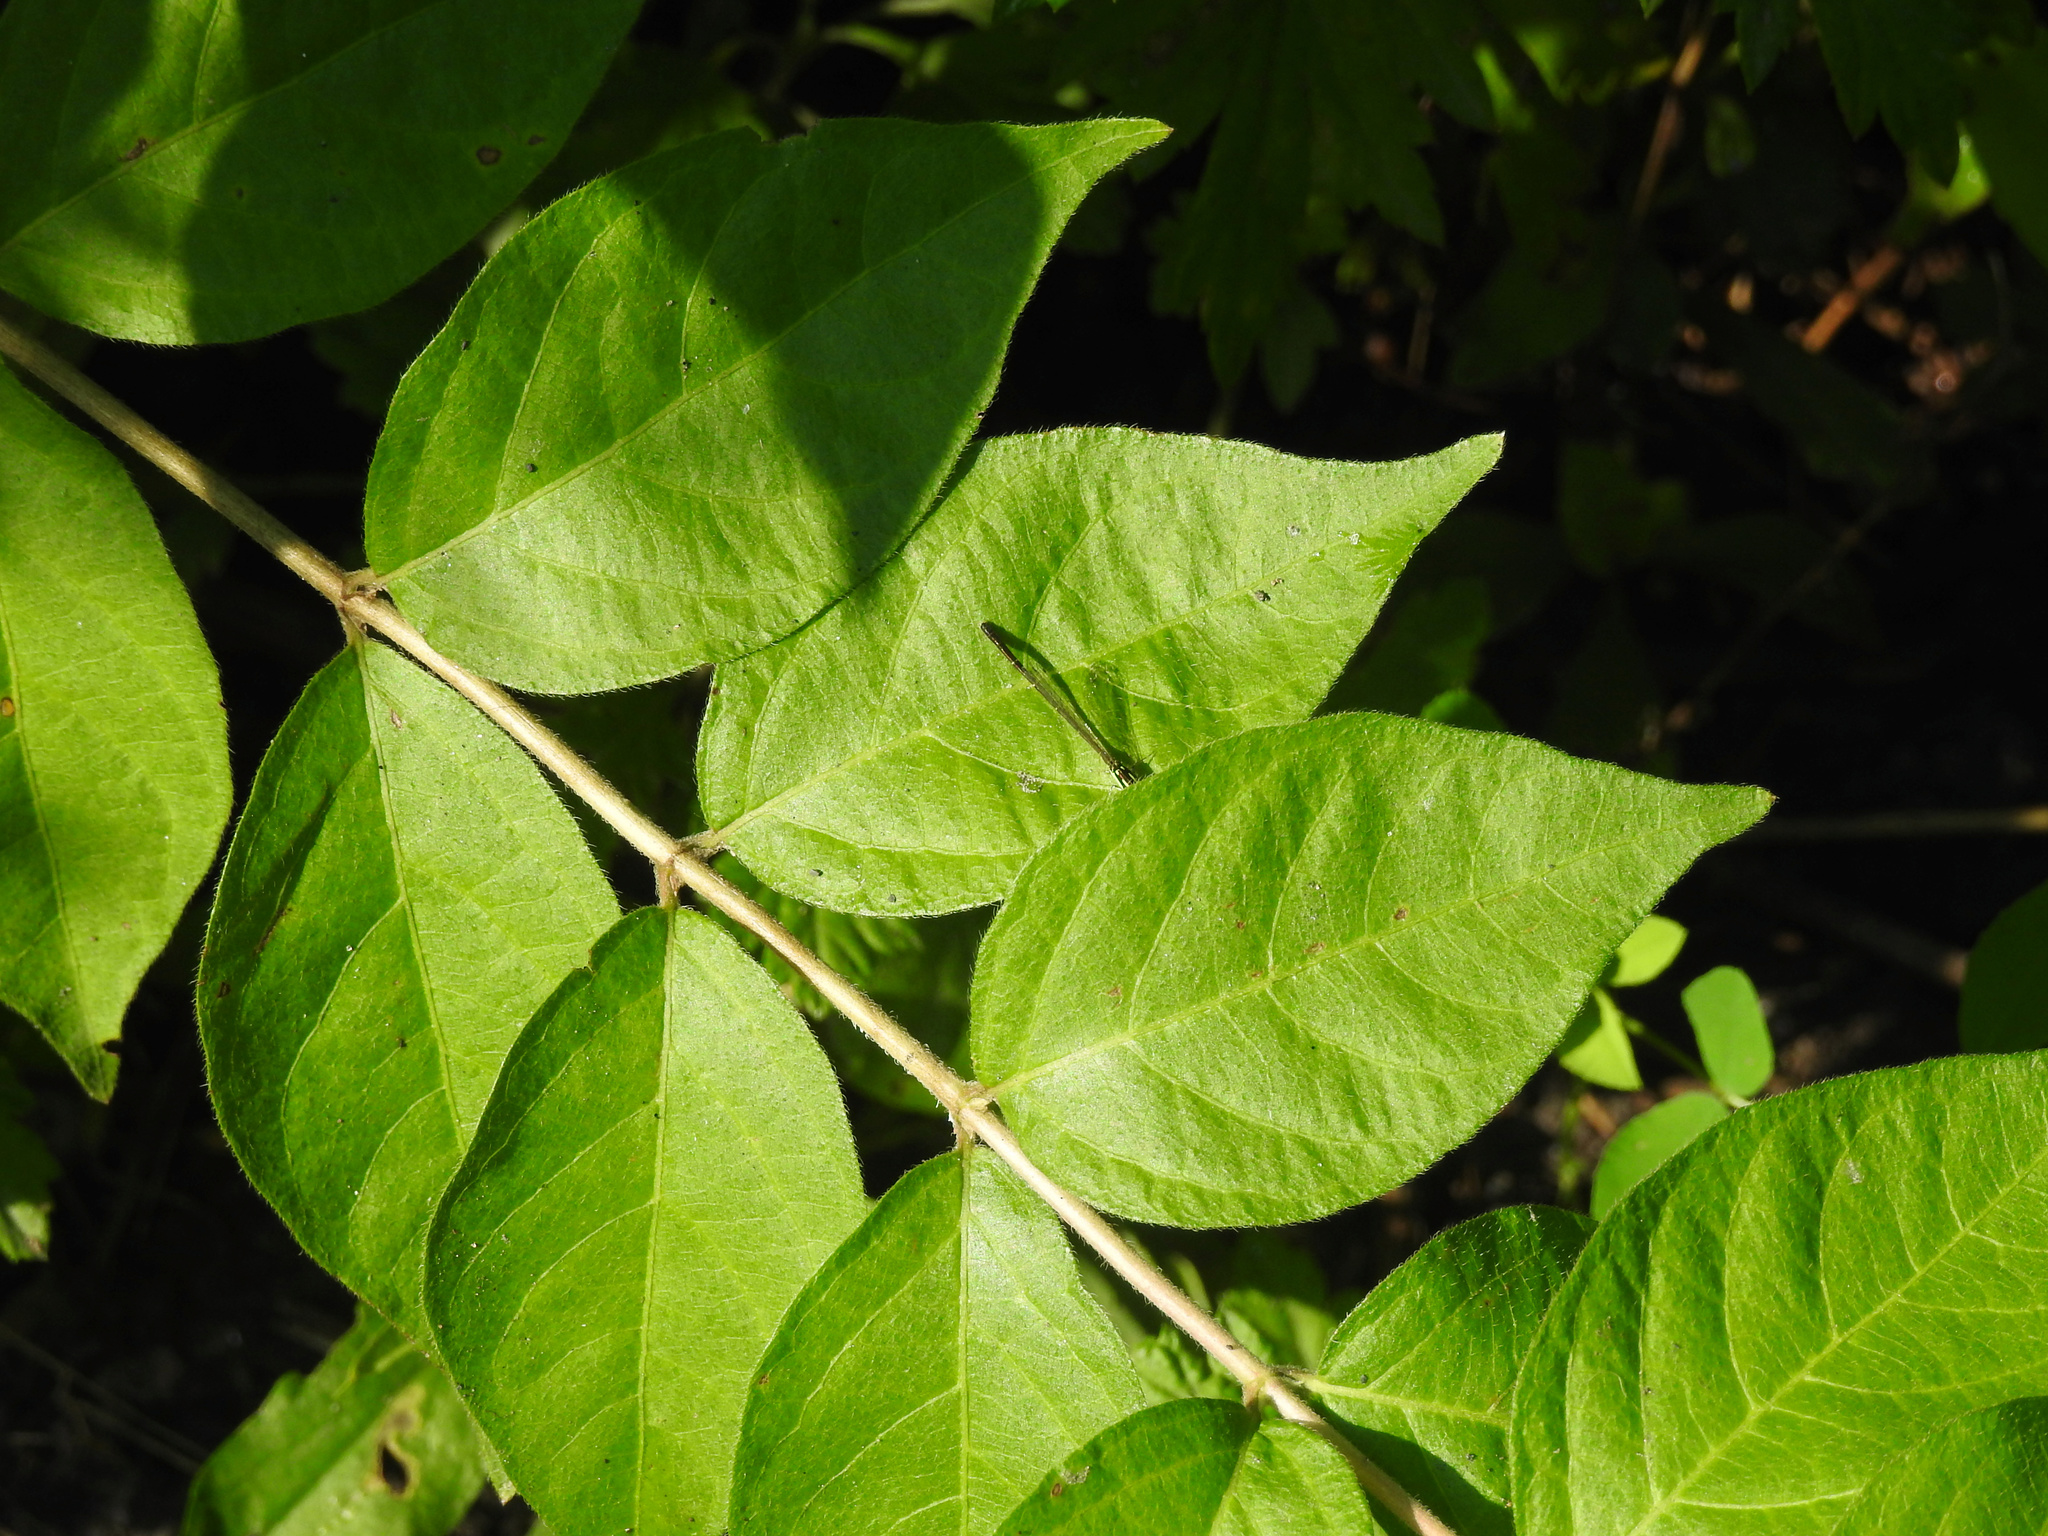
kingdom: Plantae
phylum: Tracheophyta
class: Magnoliopsida
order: Dipsacales
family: Caprifoliaceae
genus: Lonicera
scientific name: Lonicera maackii
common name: Amur honeysuckle
